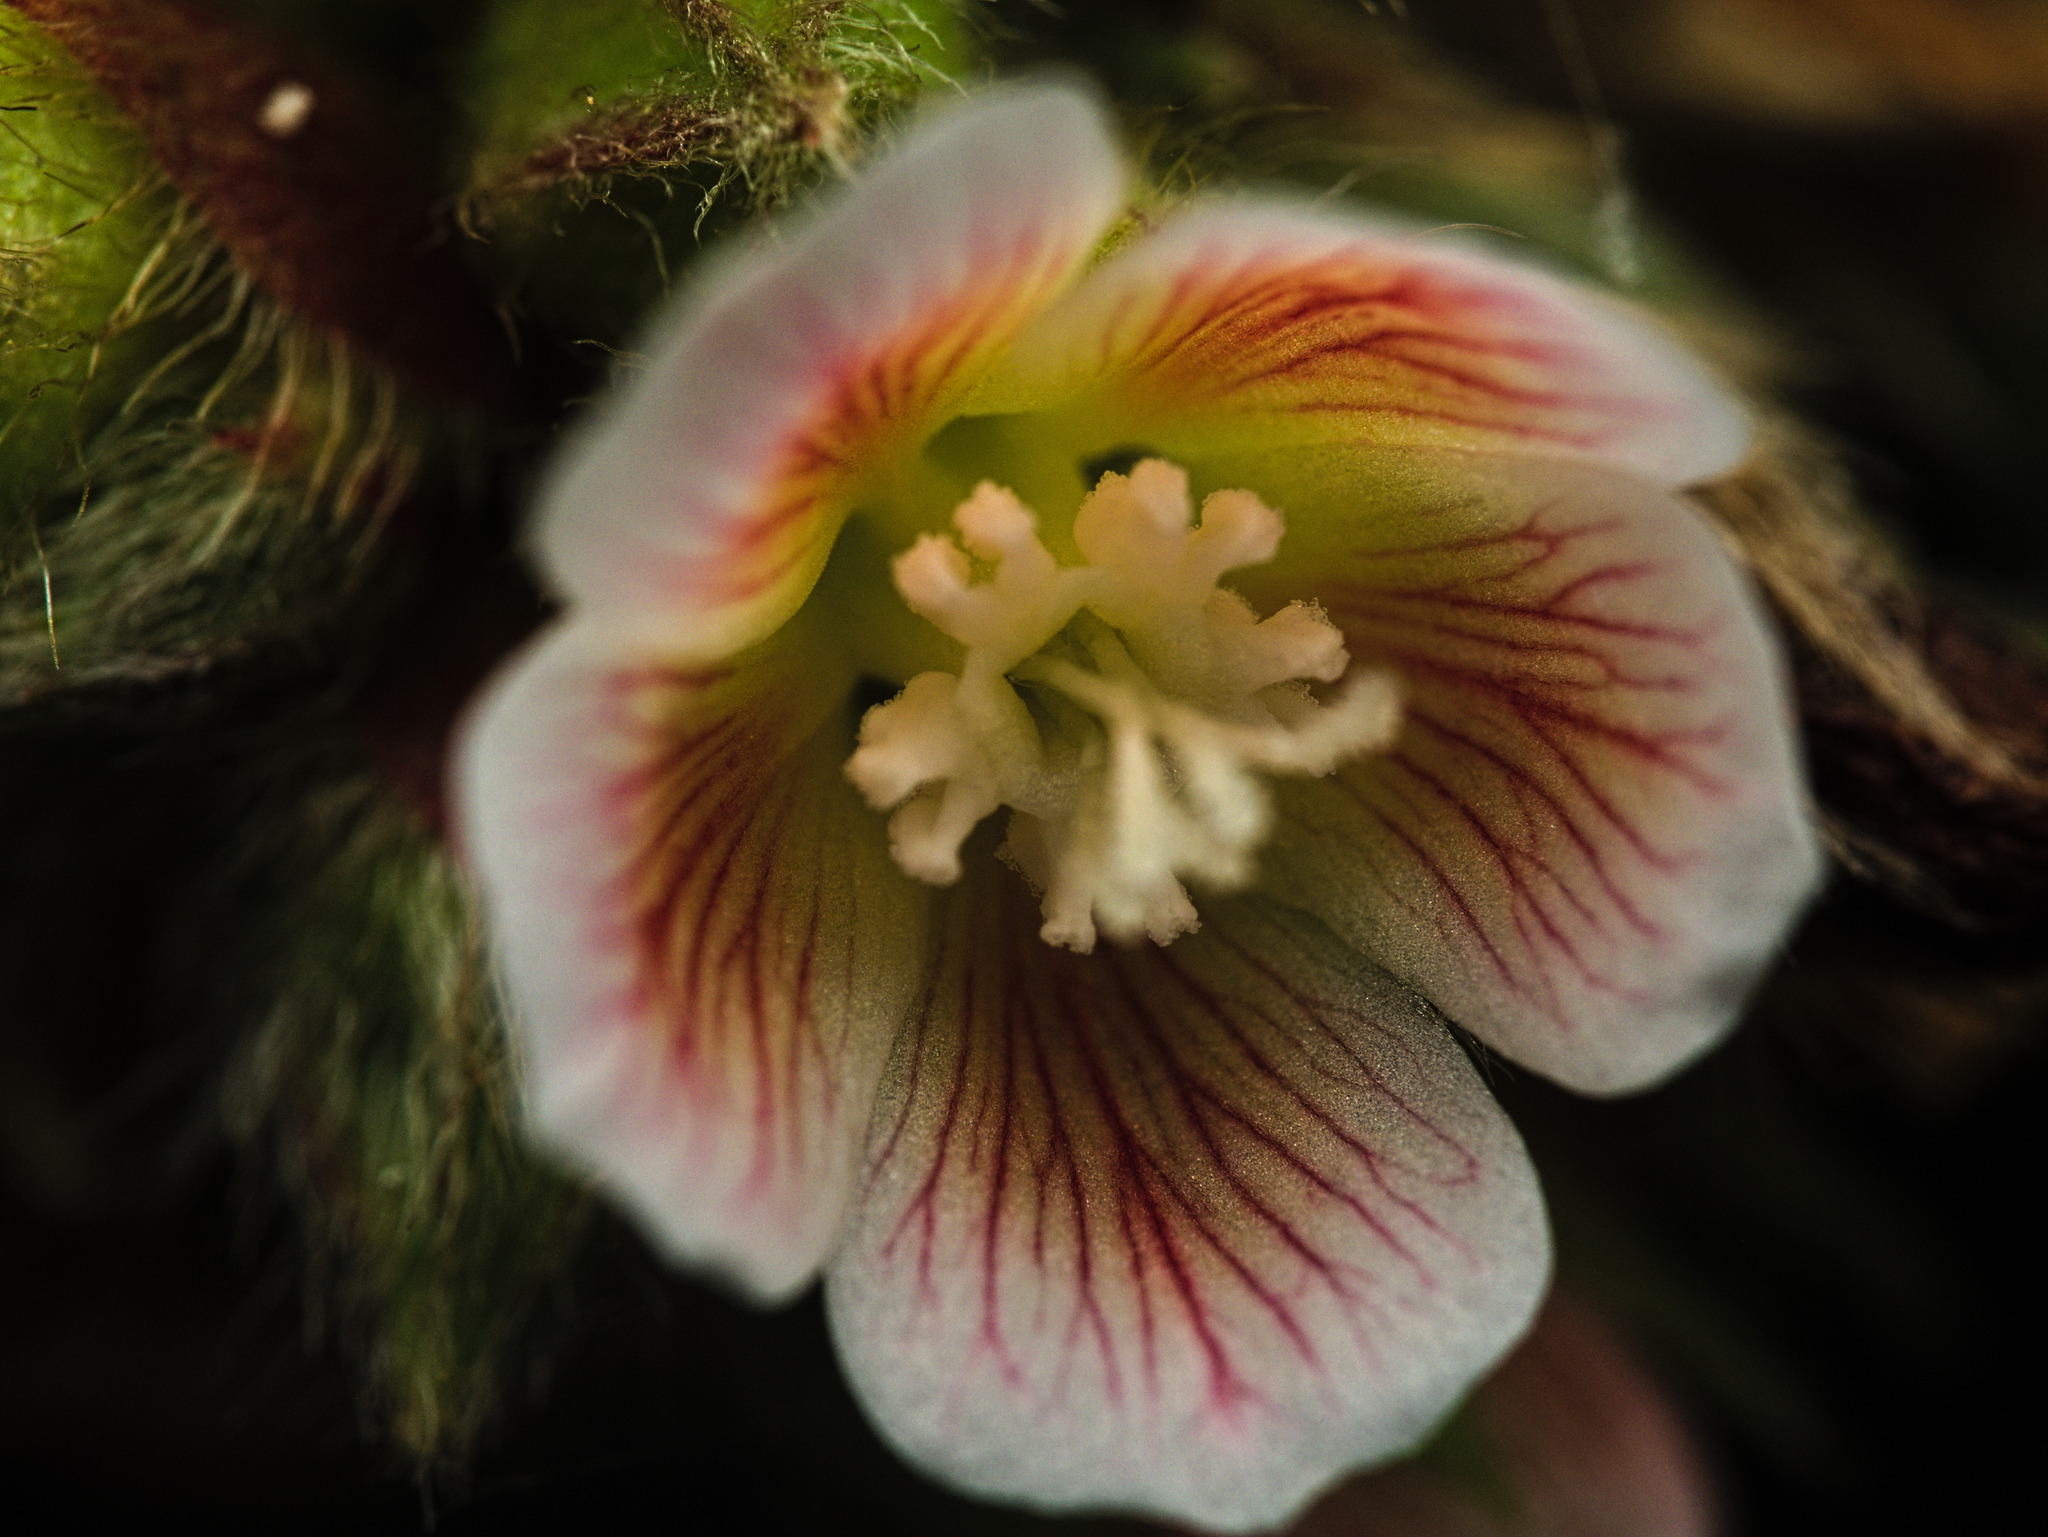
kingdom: Plantae
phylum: Tracheophyta
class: Magnoliopsida
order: Malvales
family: Malvaceae
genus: Melochia
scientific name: Melochia nodiflora
